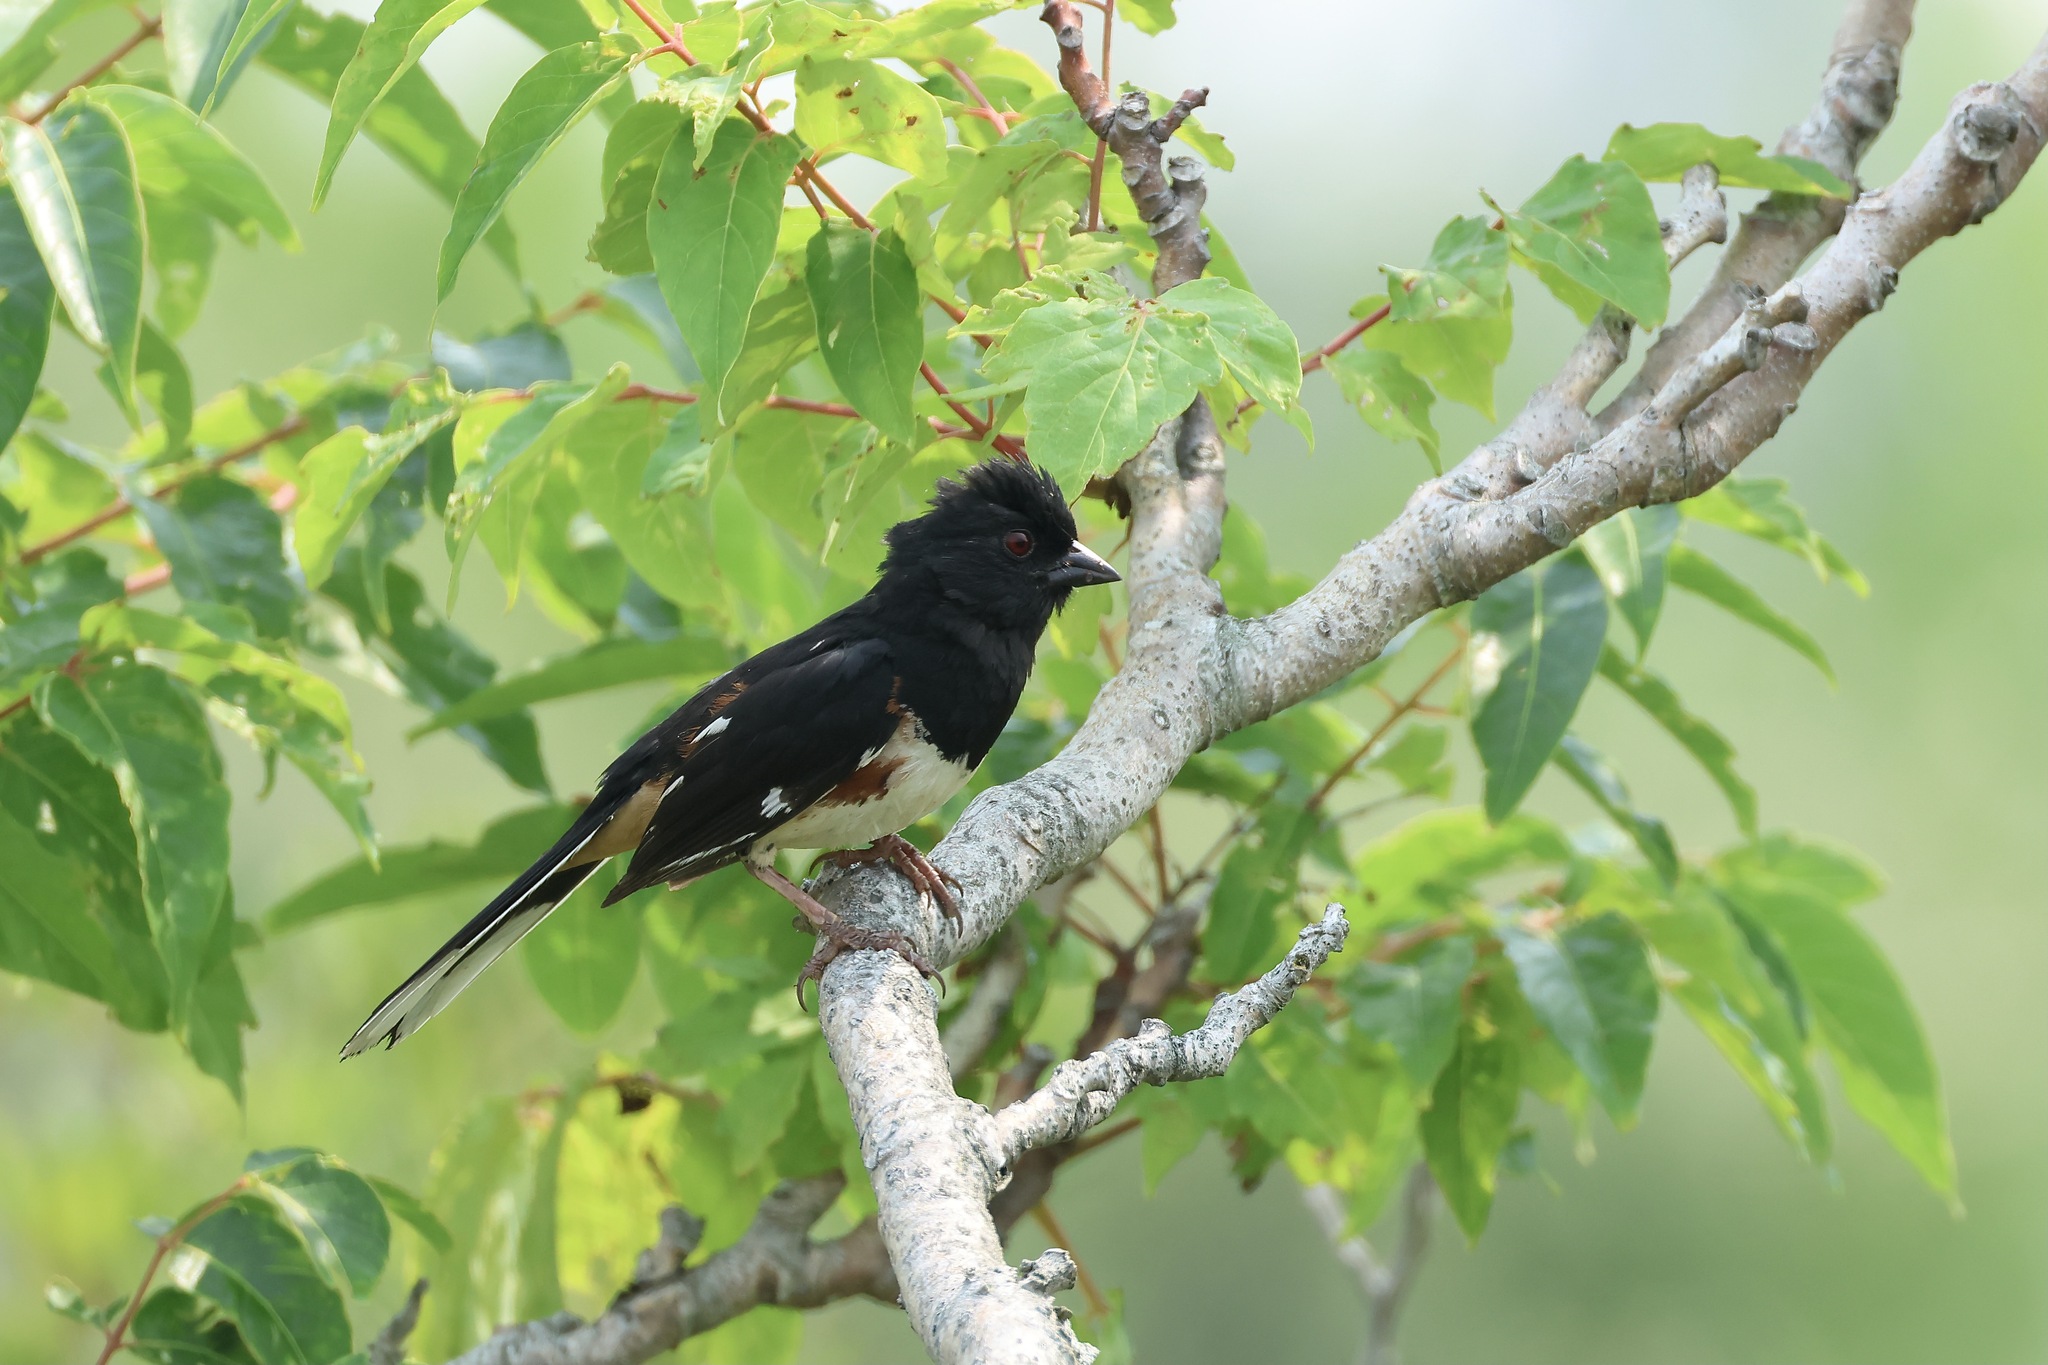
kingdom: Animalia
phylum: Chordata
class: Aves
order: Passeriformes
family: Passerellidae
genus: Pipilo
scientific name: Pipilo erythrophthalmus
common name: Eastern towhee
